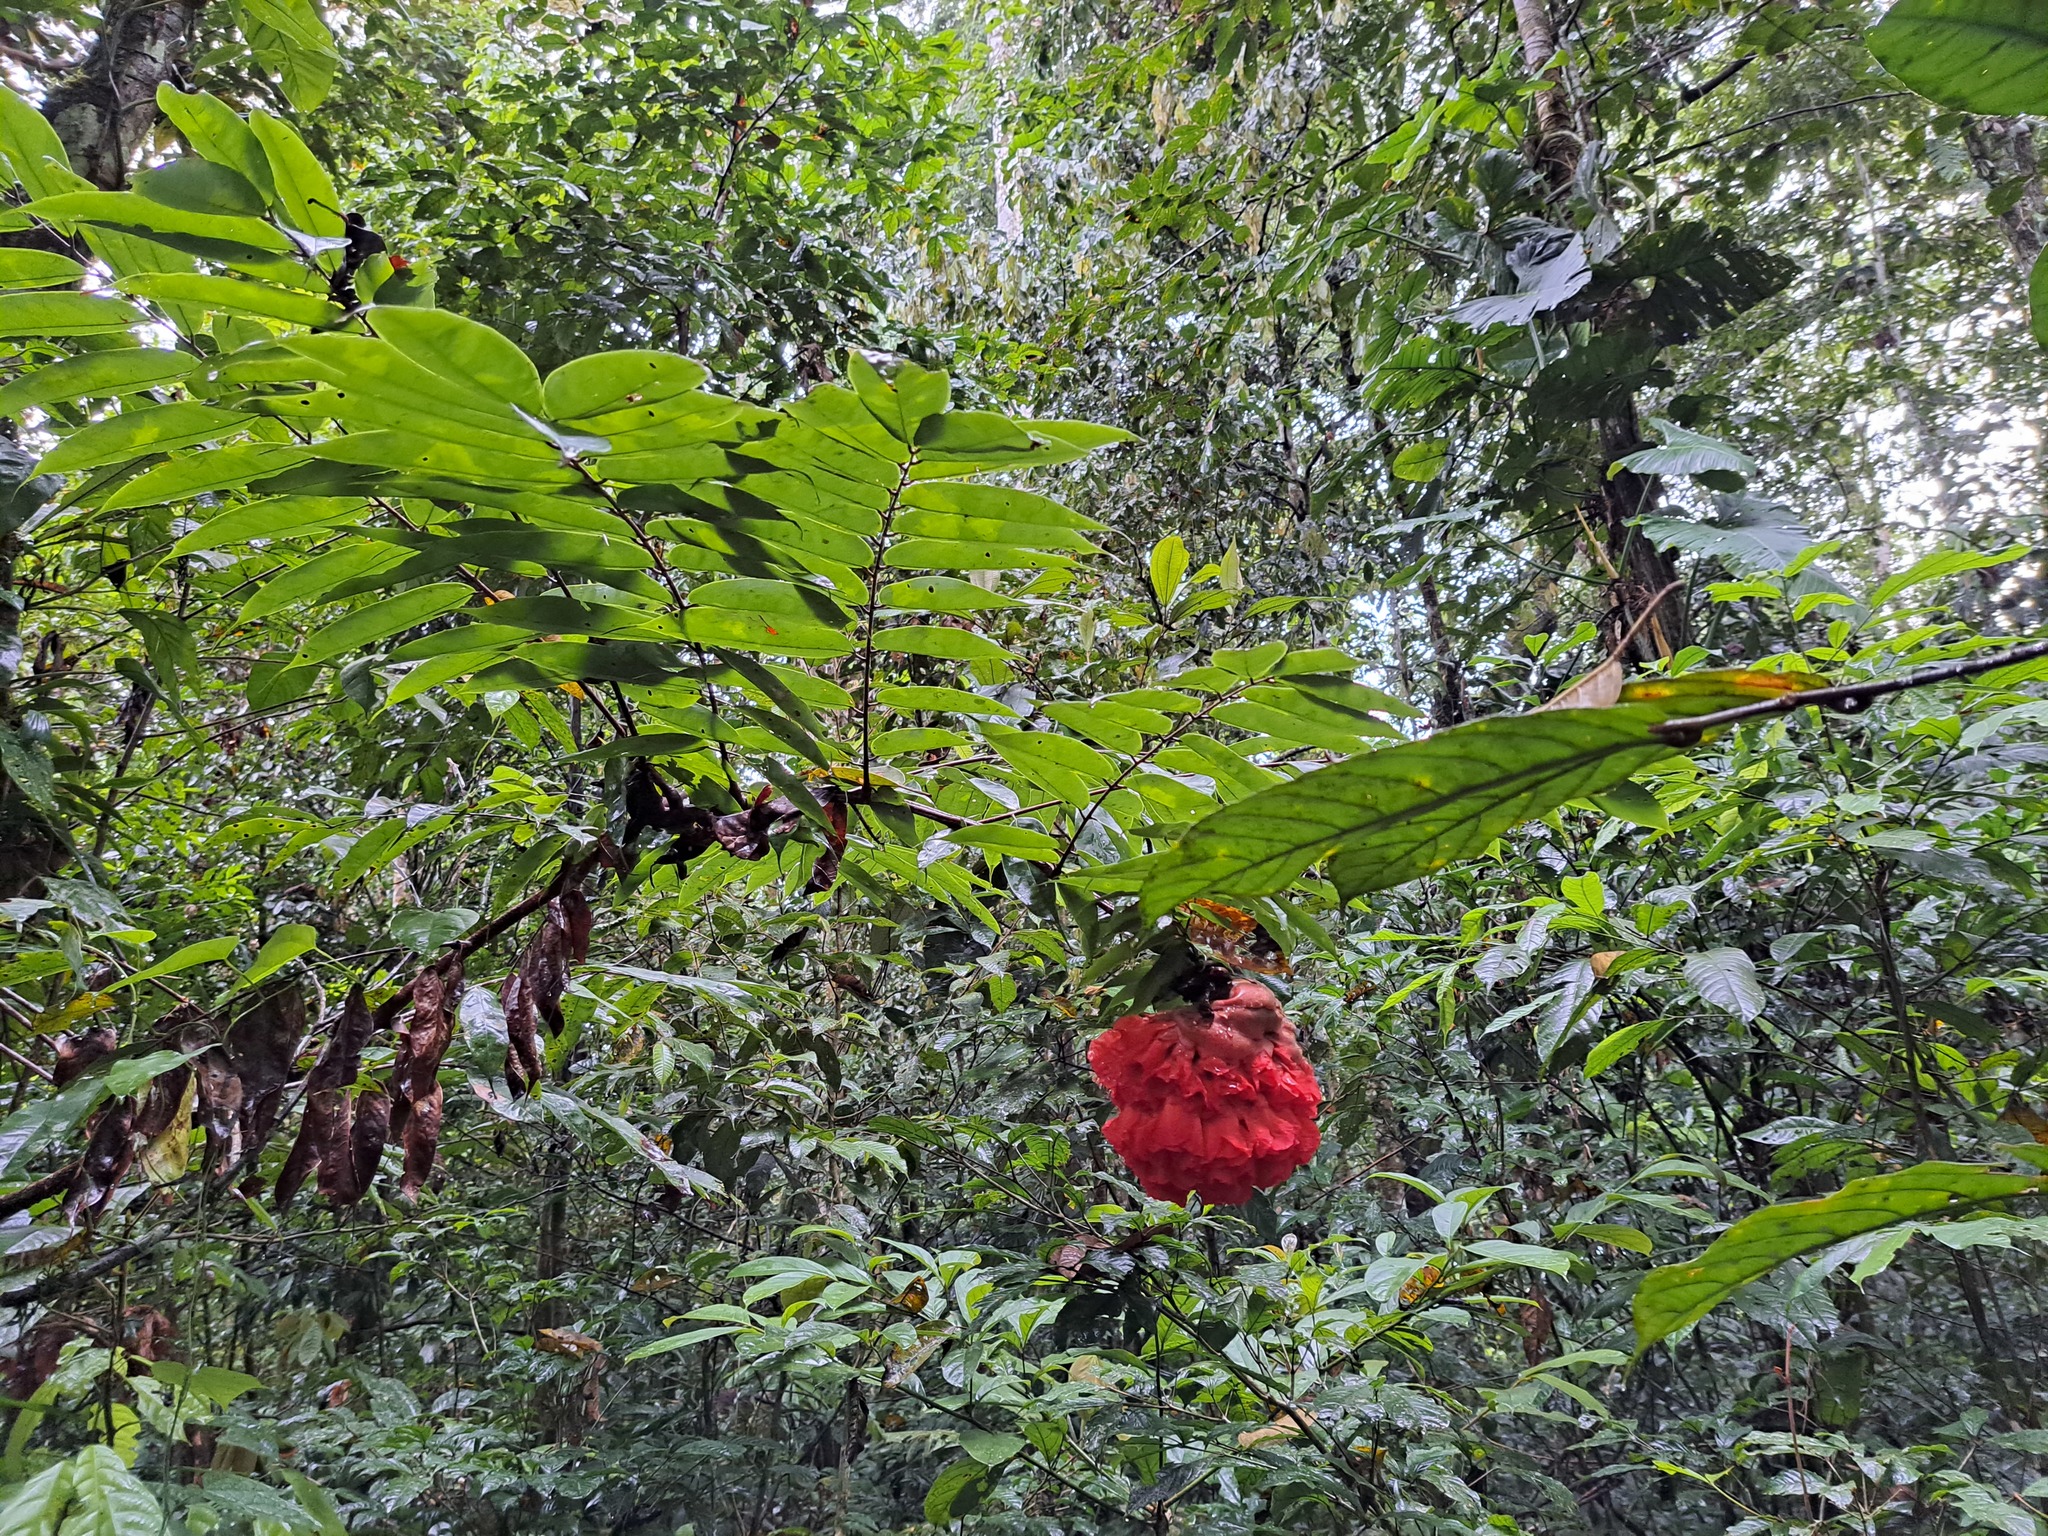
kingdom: Plantae
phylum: Tracheophyta
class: Magnoliopsida
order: Fabales
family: Fabaceae
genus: Brownea
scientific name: Brownea grandiceps
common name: Rose-of-venezuela
